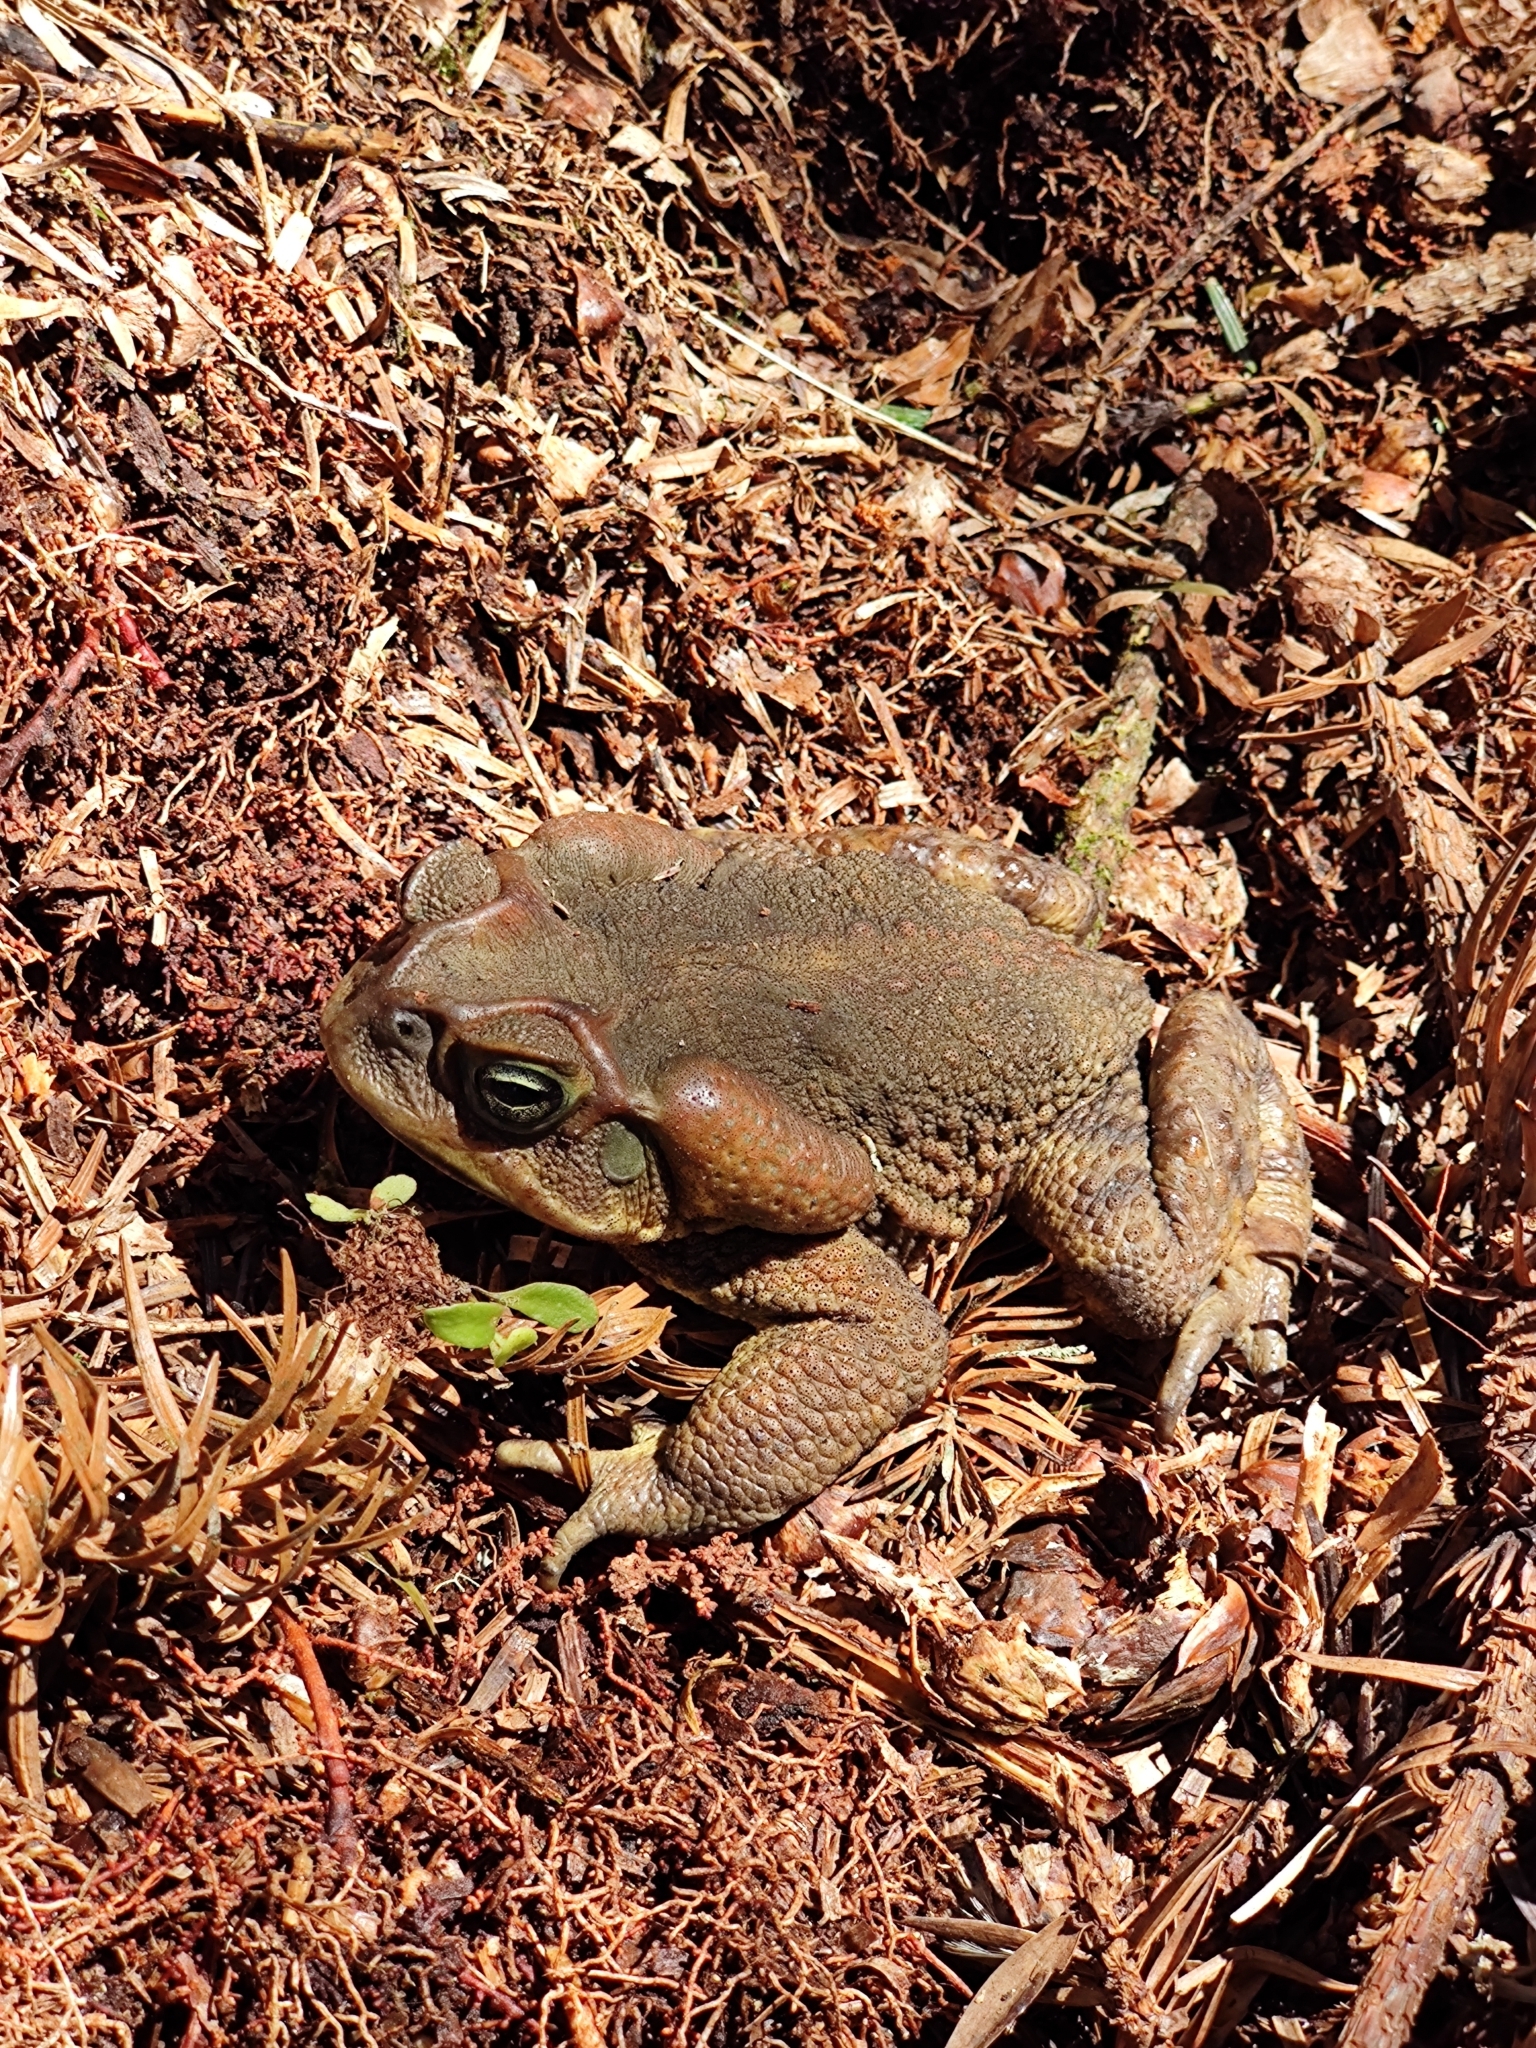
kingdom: Animalia
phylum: Chordata
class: Amphibia
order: Anura
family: Bufonidae
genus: Rhinella
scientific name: Rhinella icterica
